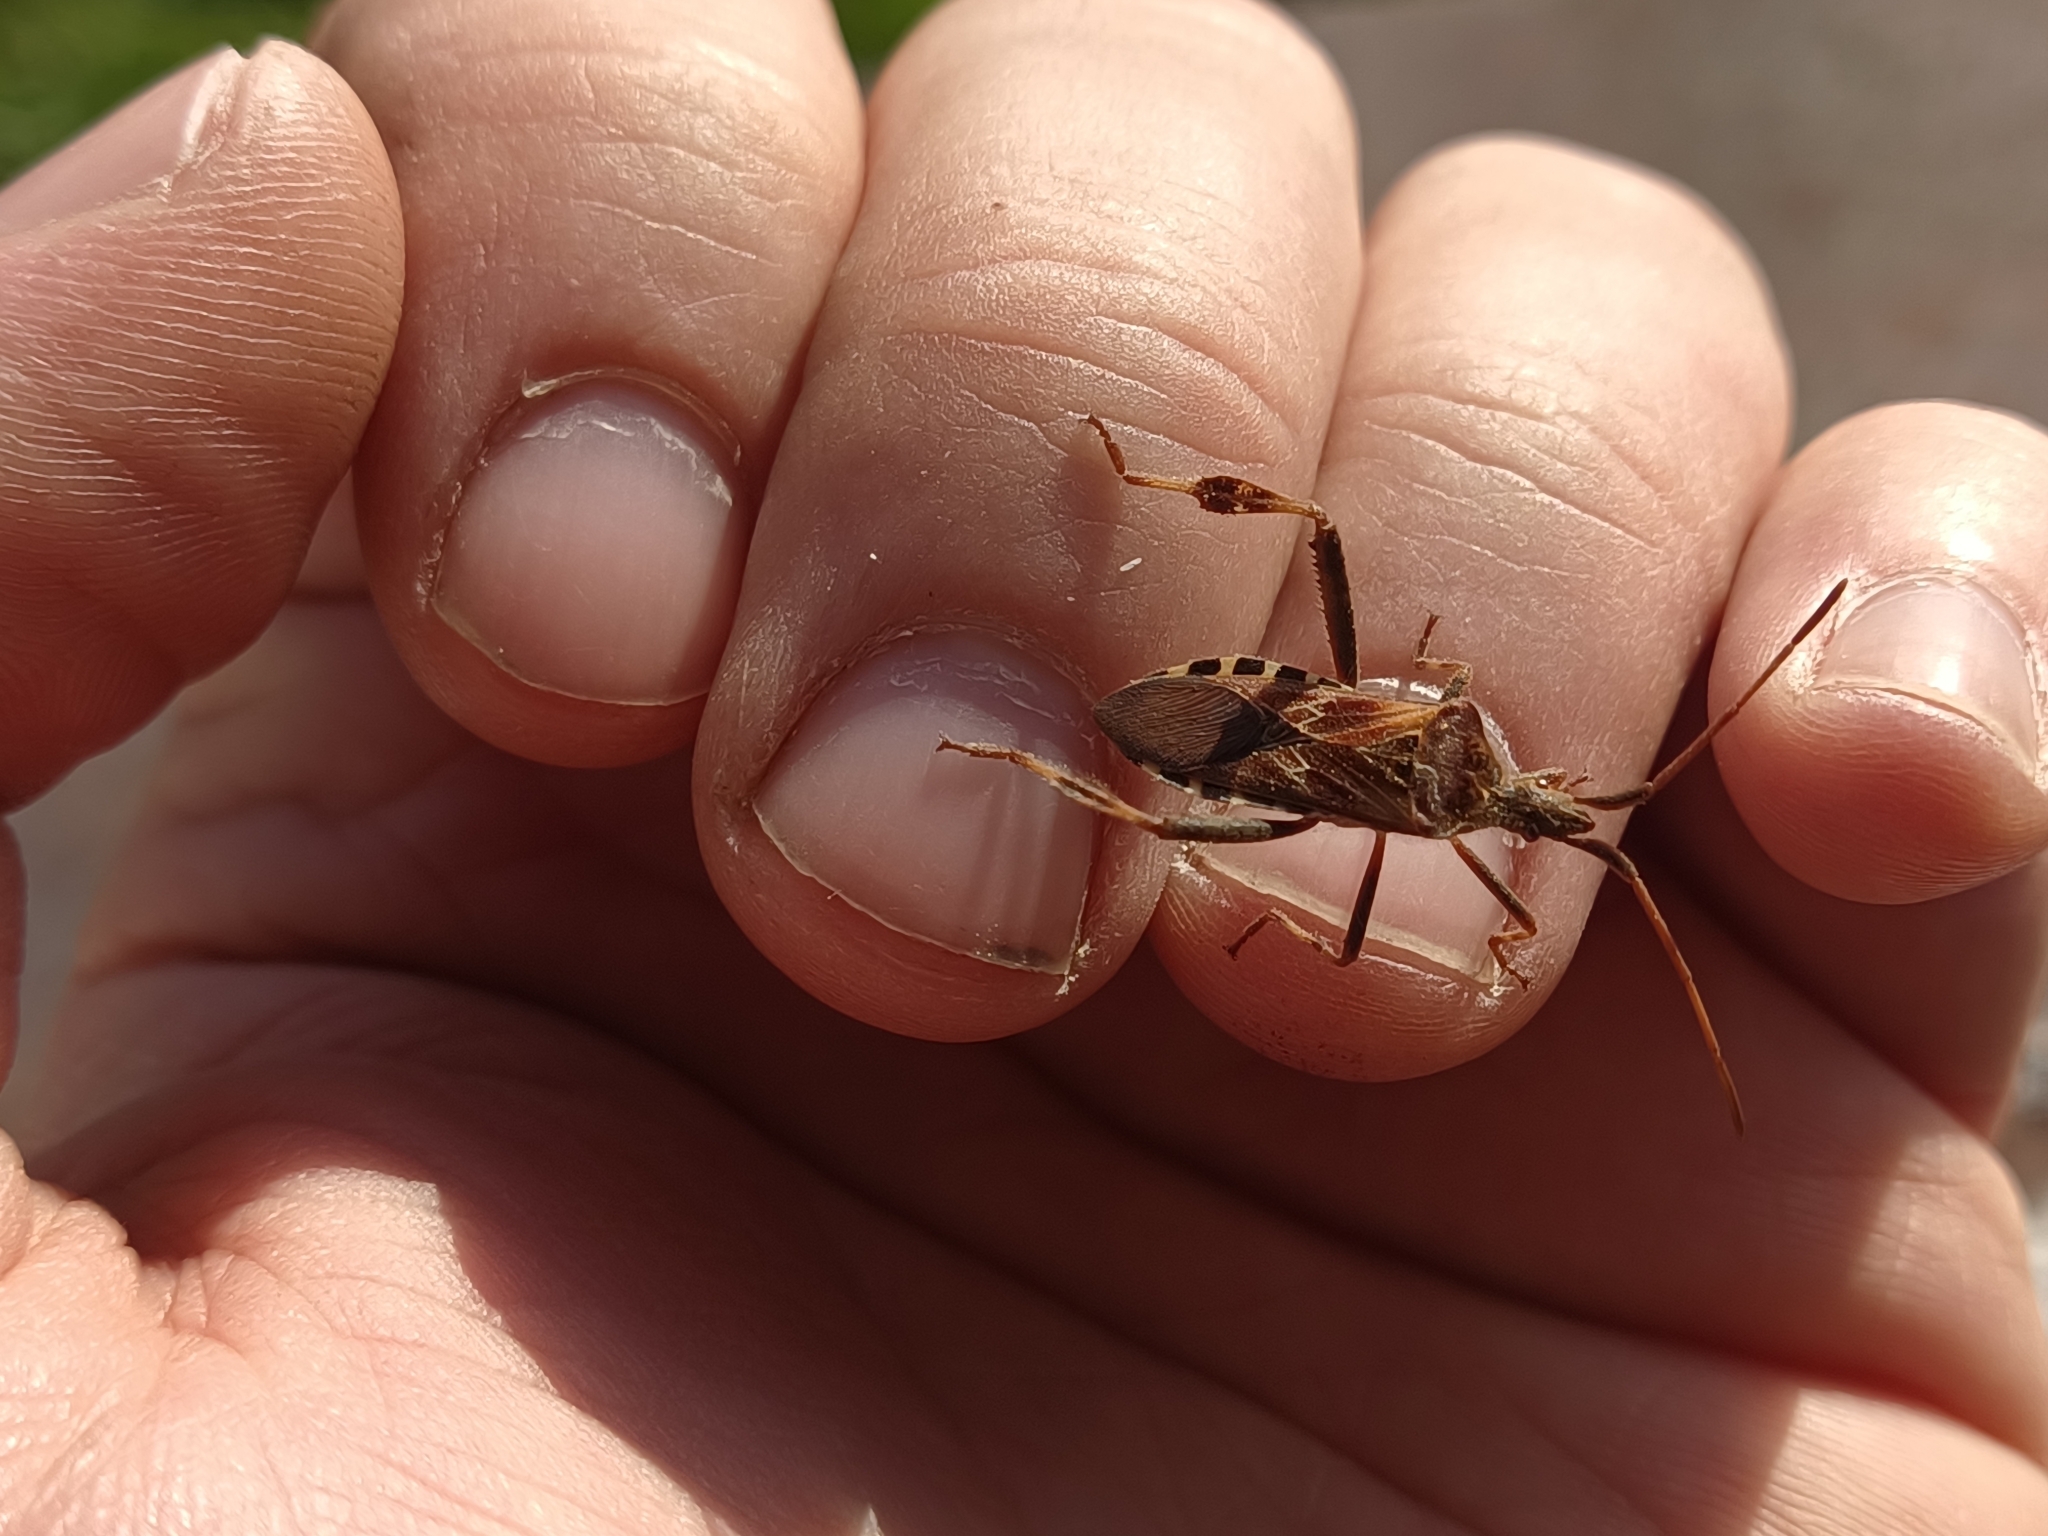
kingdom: Animalia
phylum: Arthropoda
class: Insecta
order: Hemiptera
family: Coreidae
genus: Leptoglossus
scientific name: Leptoglossus occidentalis
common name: Western conifer-seed bug
